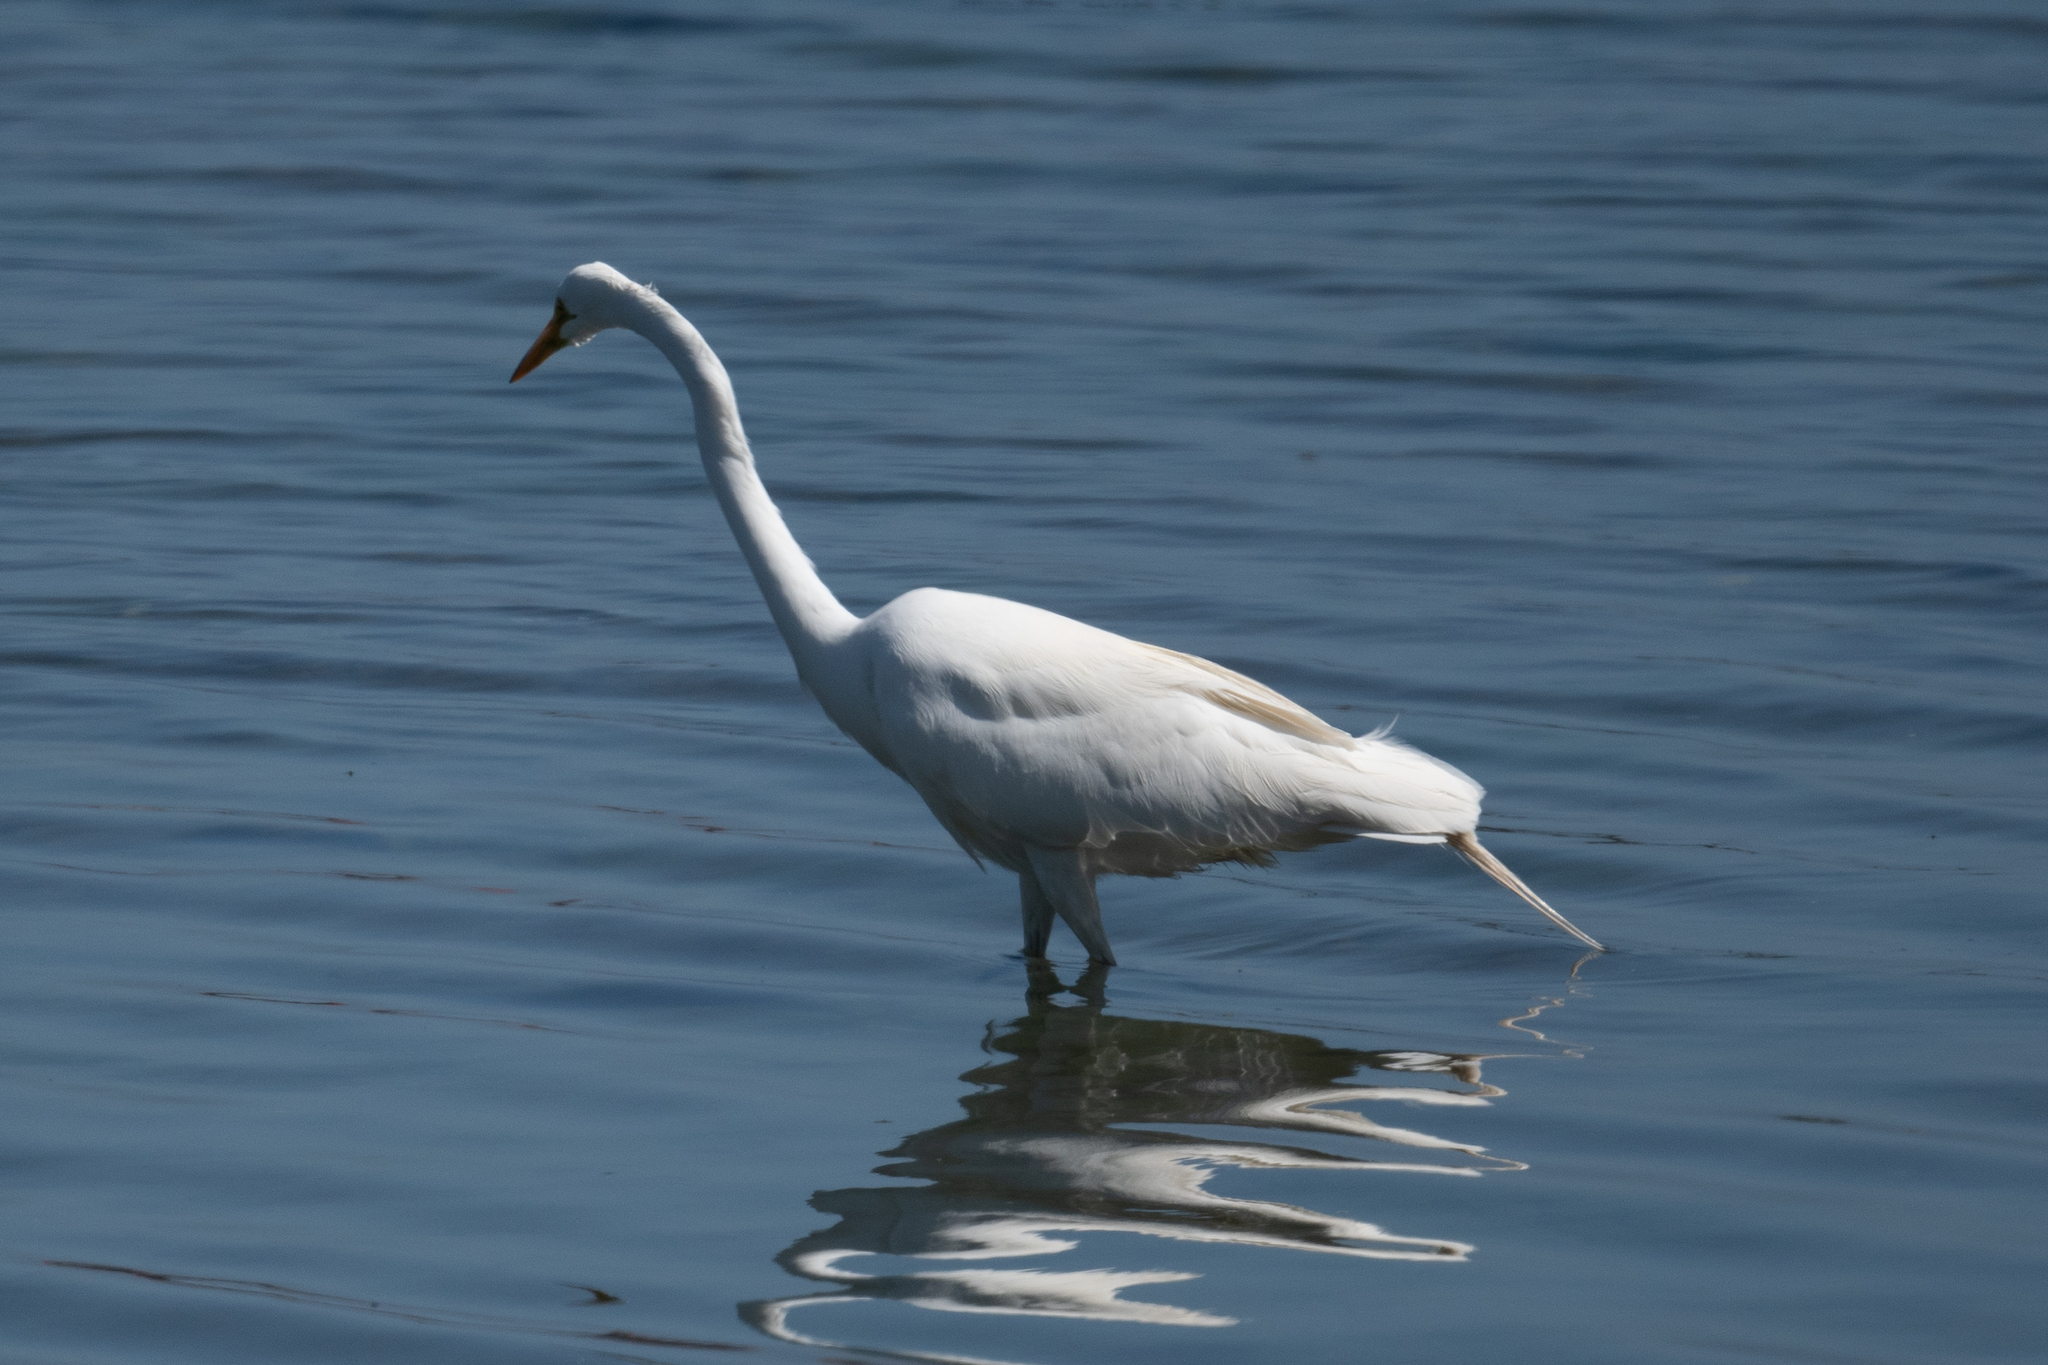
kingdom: Animalia
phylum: Chordata
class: Aves
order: Pelecaniformes
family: Ardeidae
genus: Ardea
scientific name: Ardea alba
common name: Great egret
